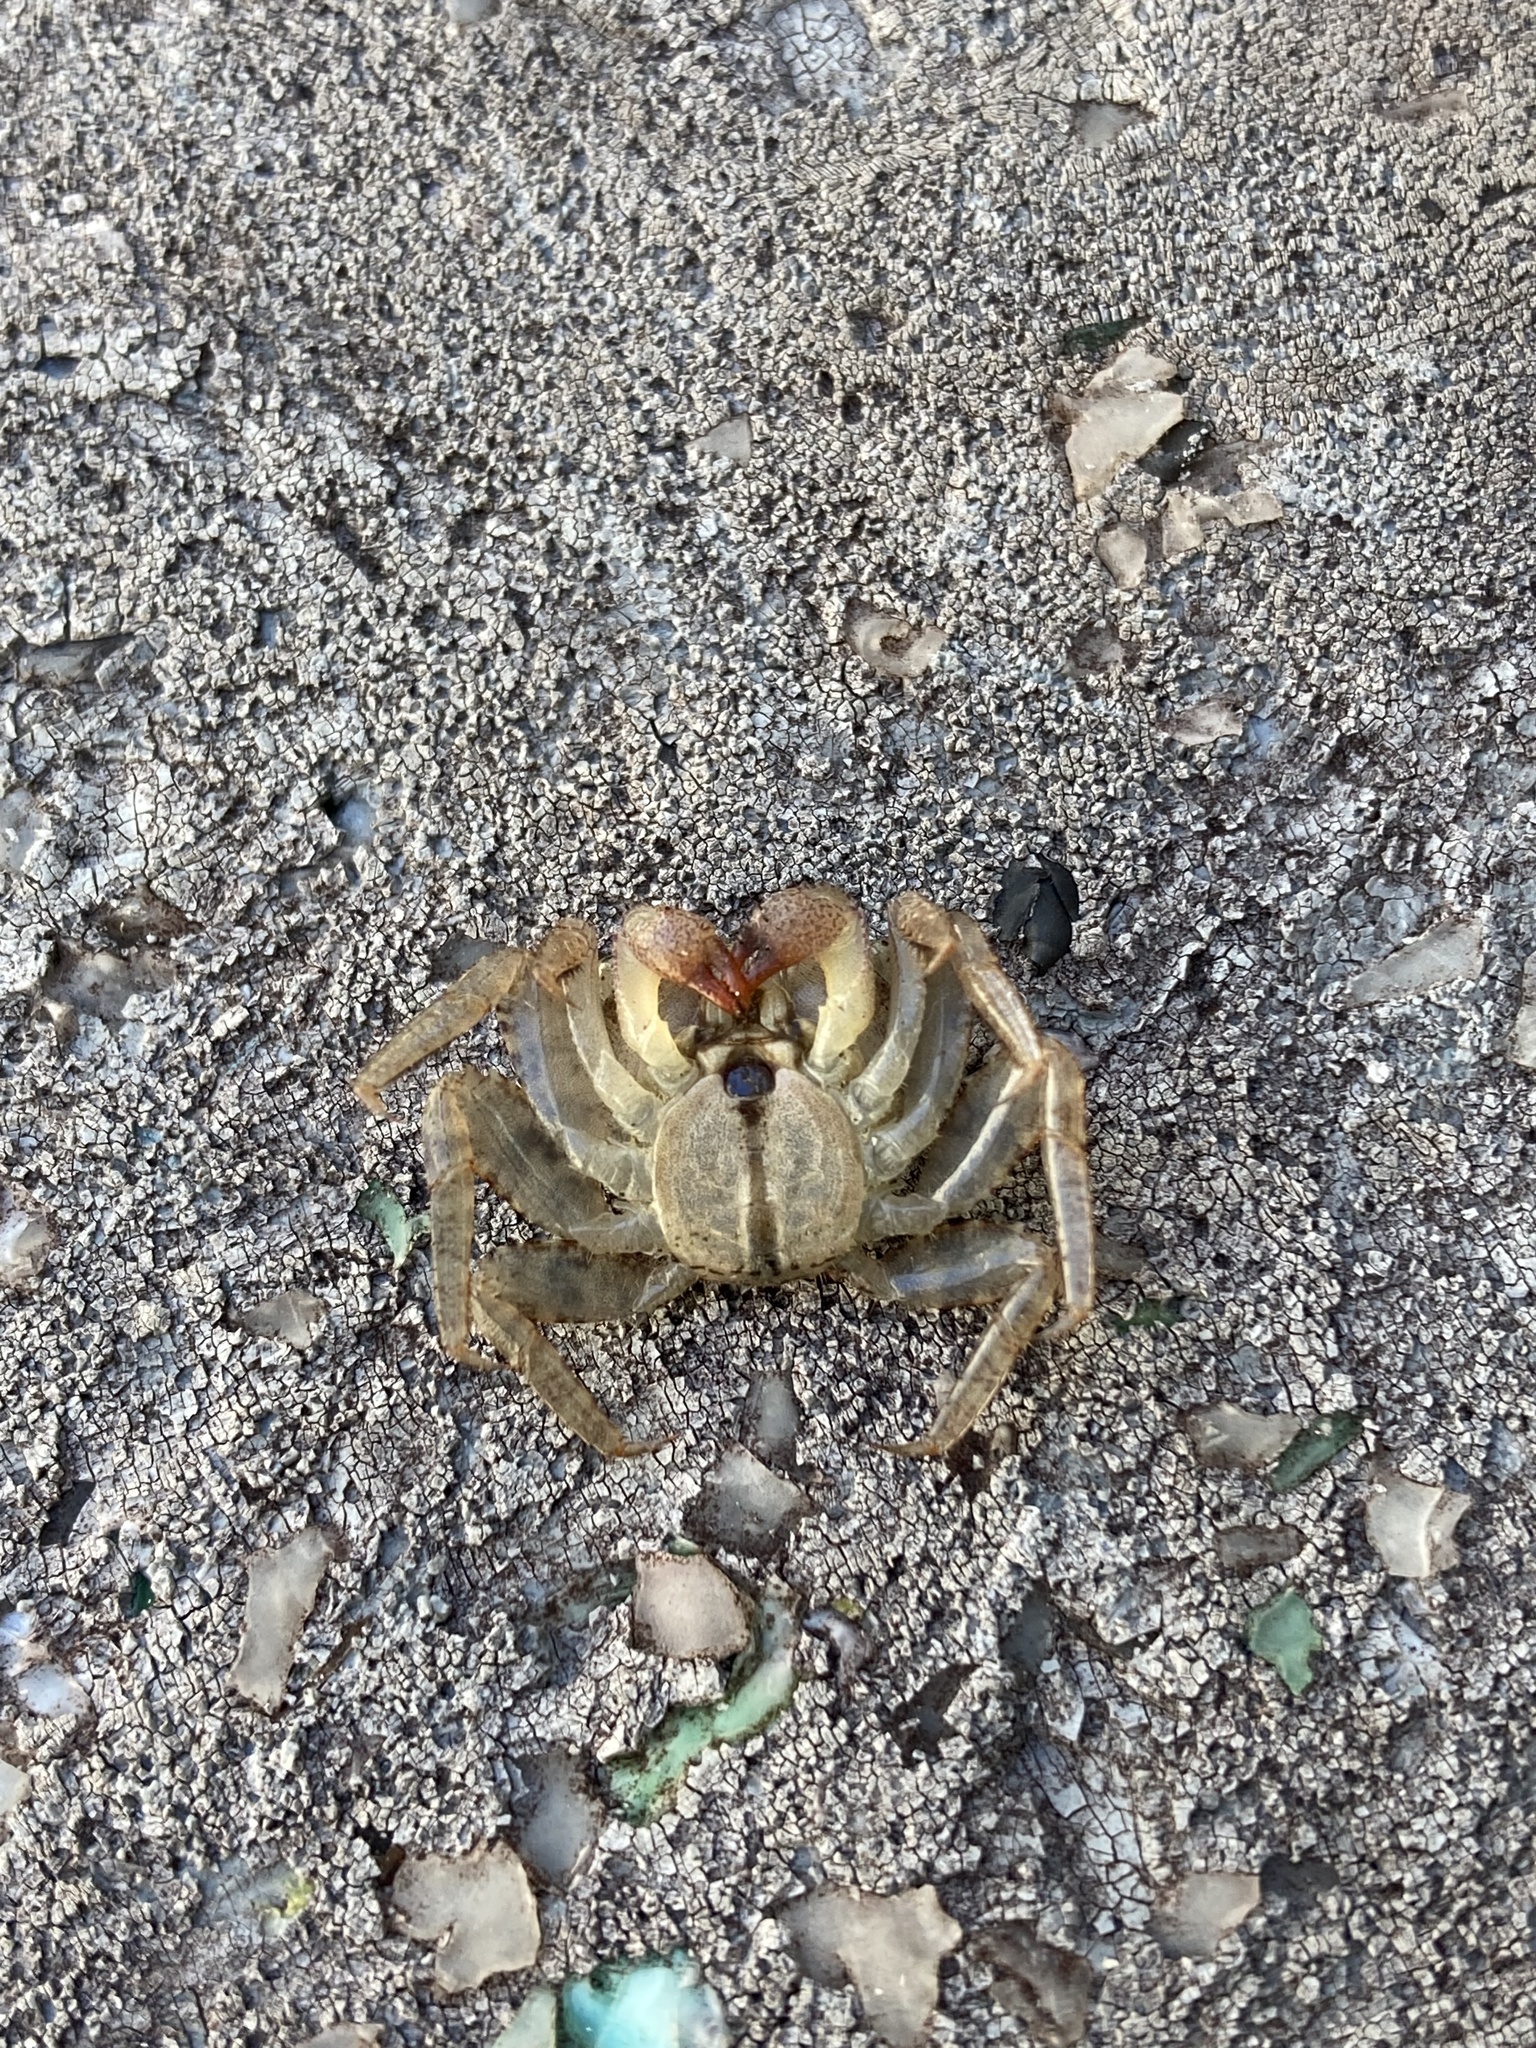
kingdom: Animalia
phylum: Arthropoda
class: Malacostraca
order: Decapoda
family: Sesarmidae
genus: Aratus
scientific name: Aratus pisonii
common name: Mangrove crab
